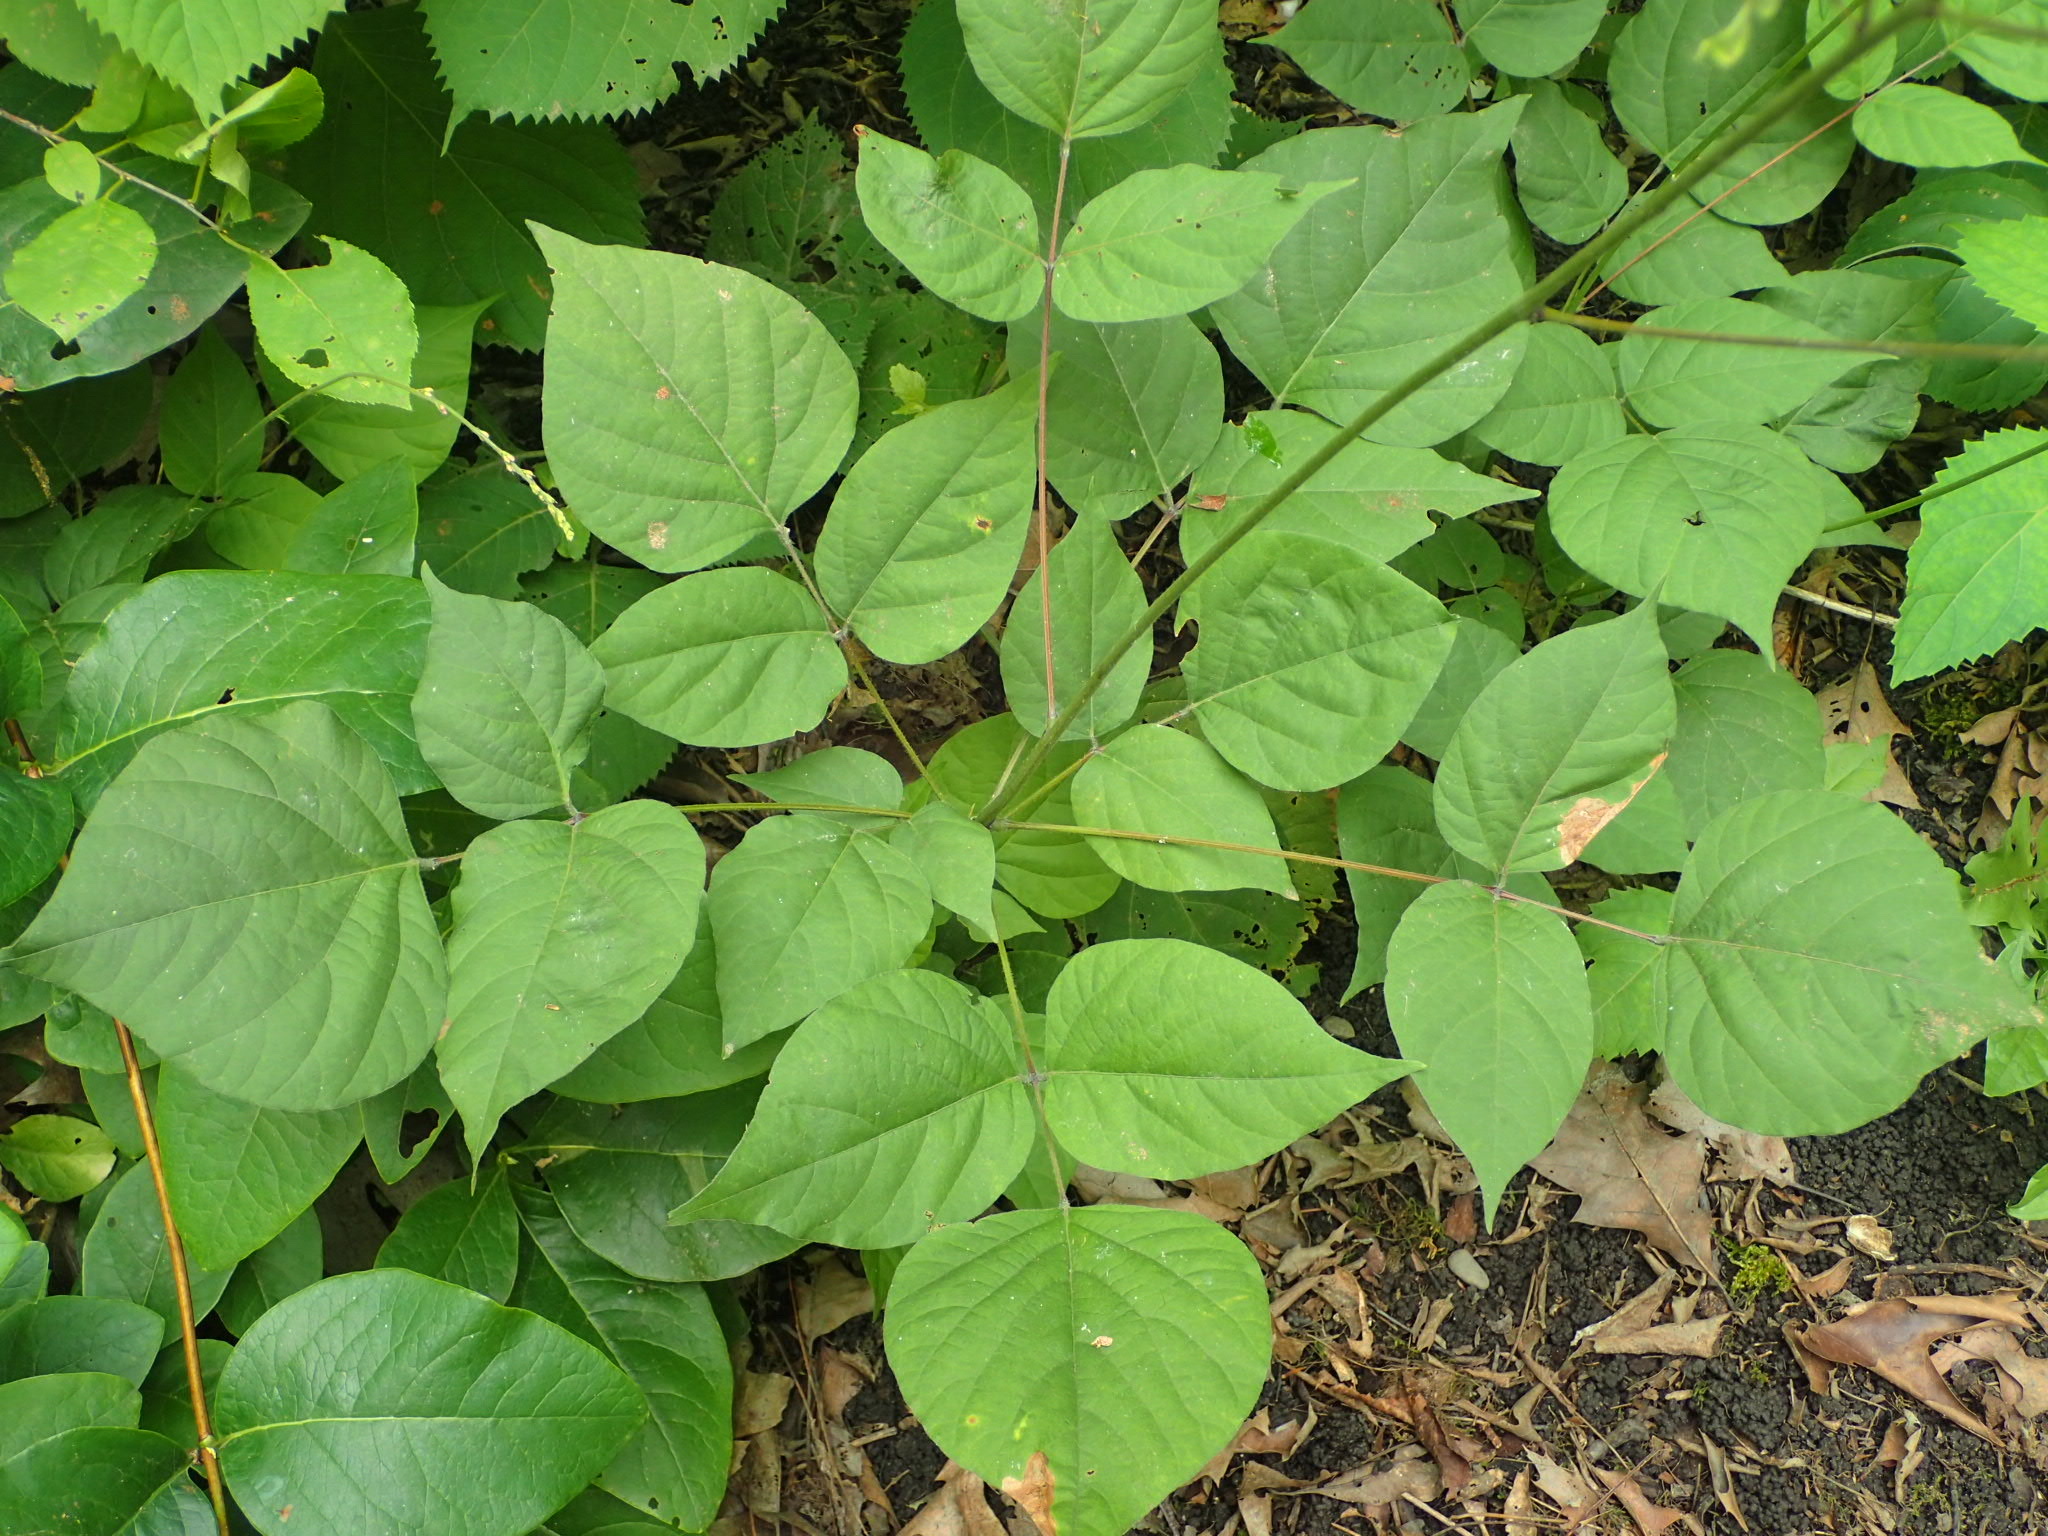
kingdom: Plantae
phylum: Tracheophyta
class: Magnoliopsida
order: Fabales
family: Fabaceae
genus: Hylodesmum
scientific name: Hylodesmum glutinosum
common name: Clustered-leaved tick-trefoil
